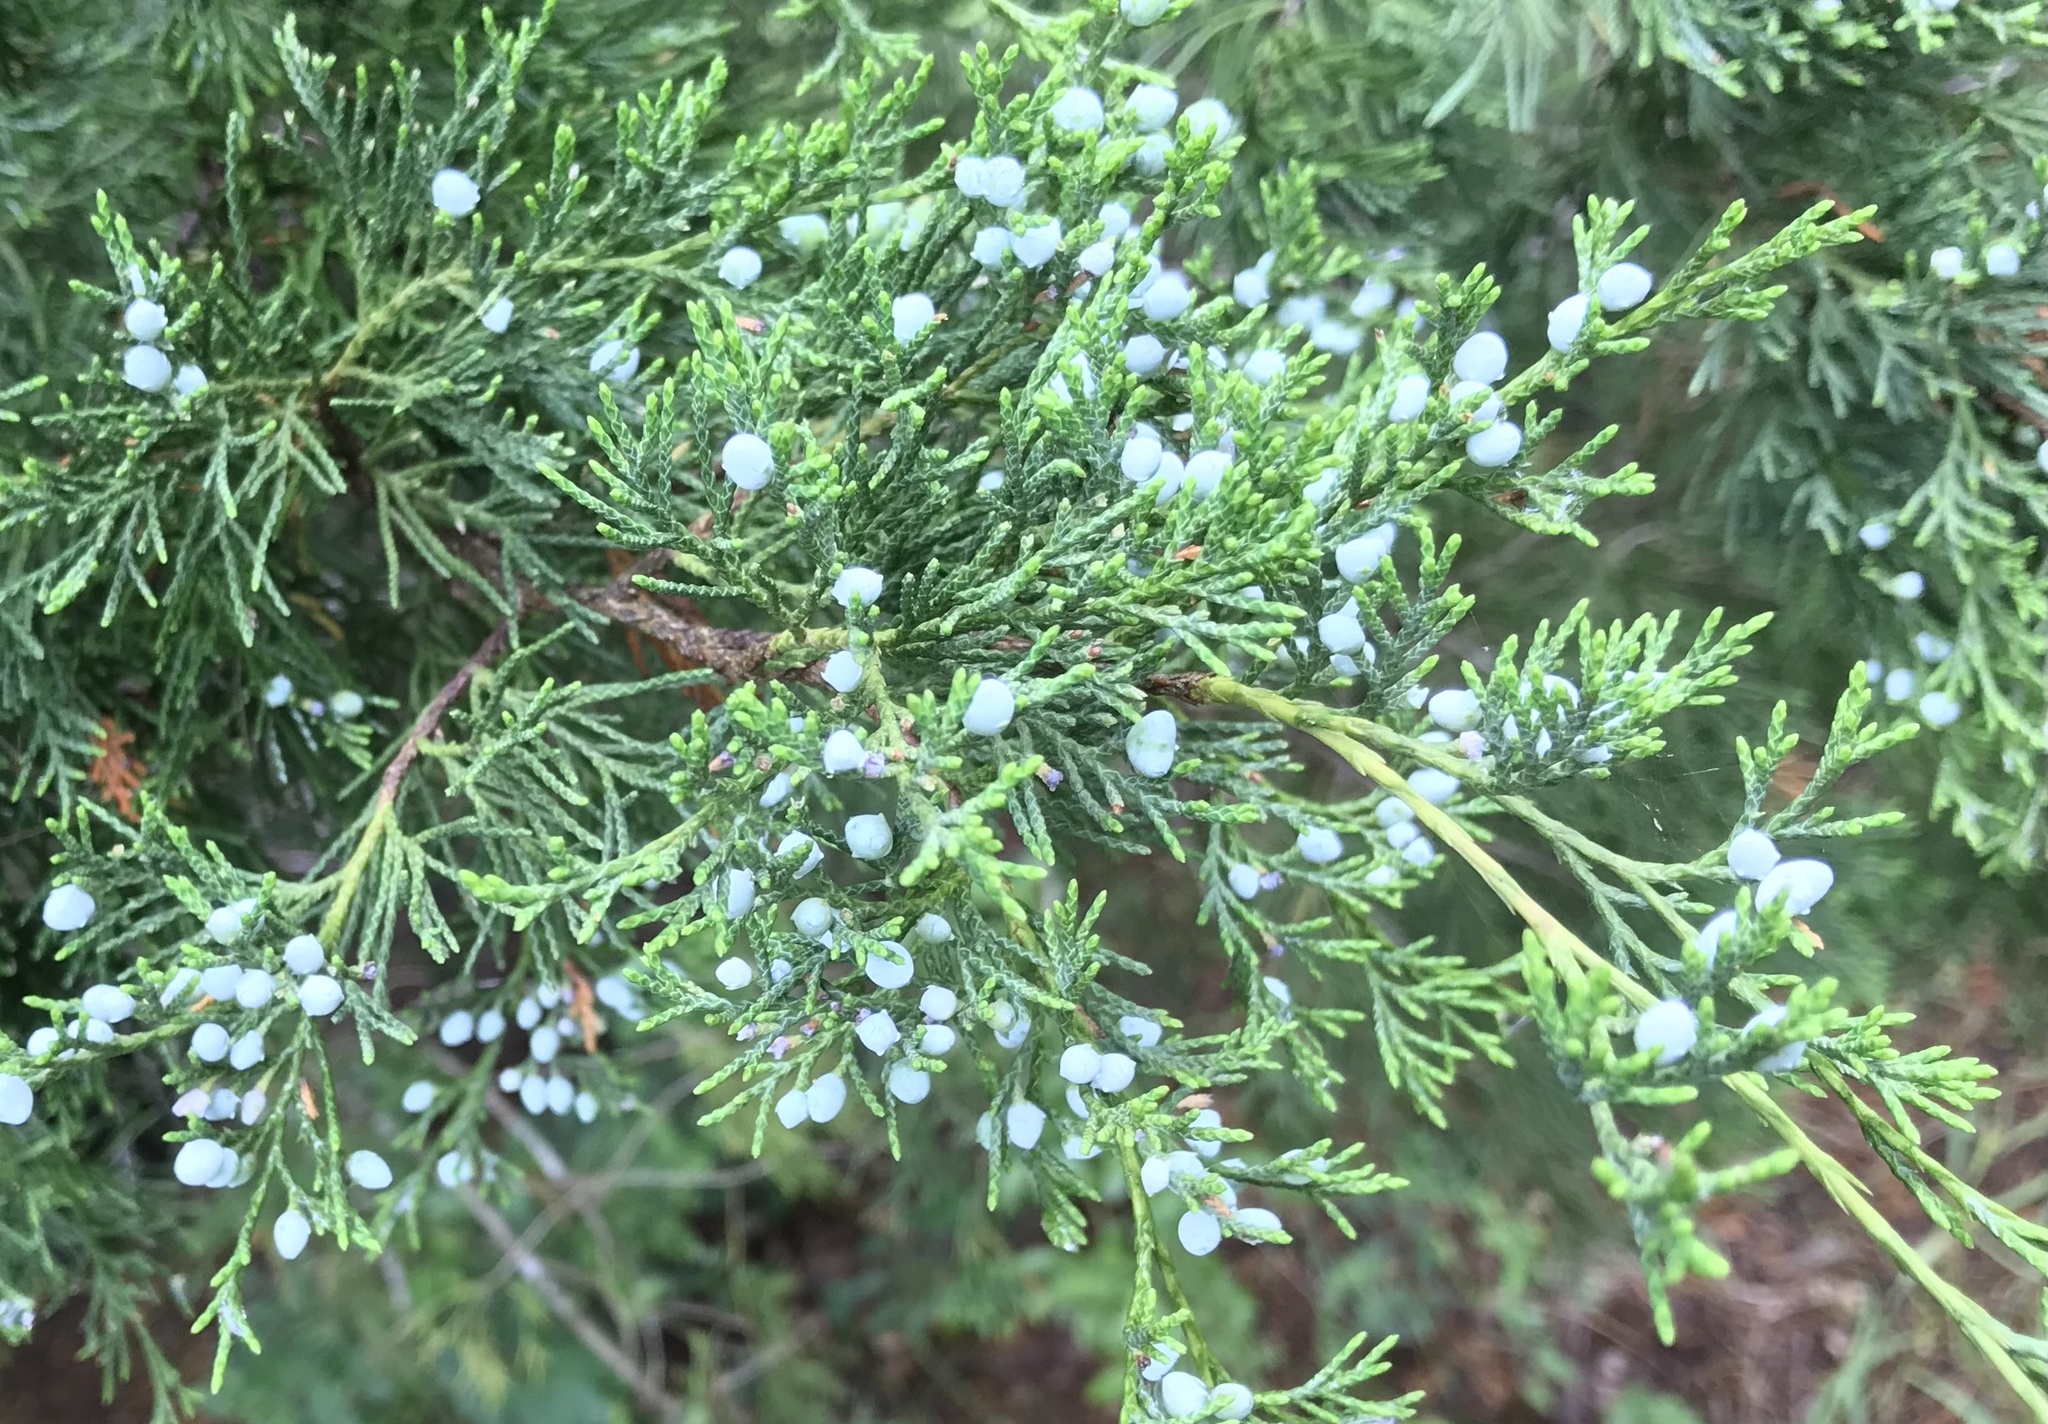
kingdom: Plantae
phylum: Tracheophyta
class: Pinopsida
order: Pinales
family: Cupressaceae
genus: Juniperus
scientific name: Juniperus virginiana
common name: Red juniper
